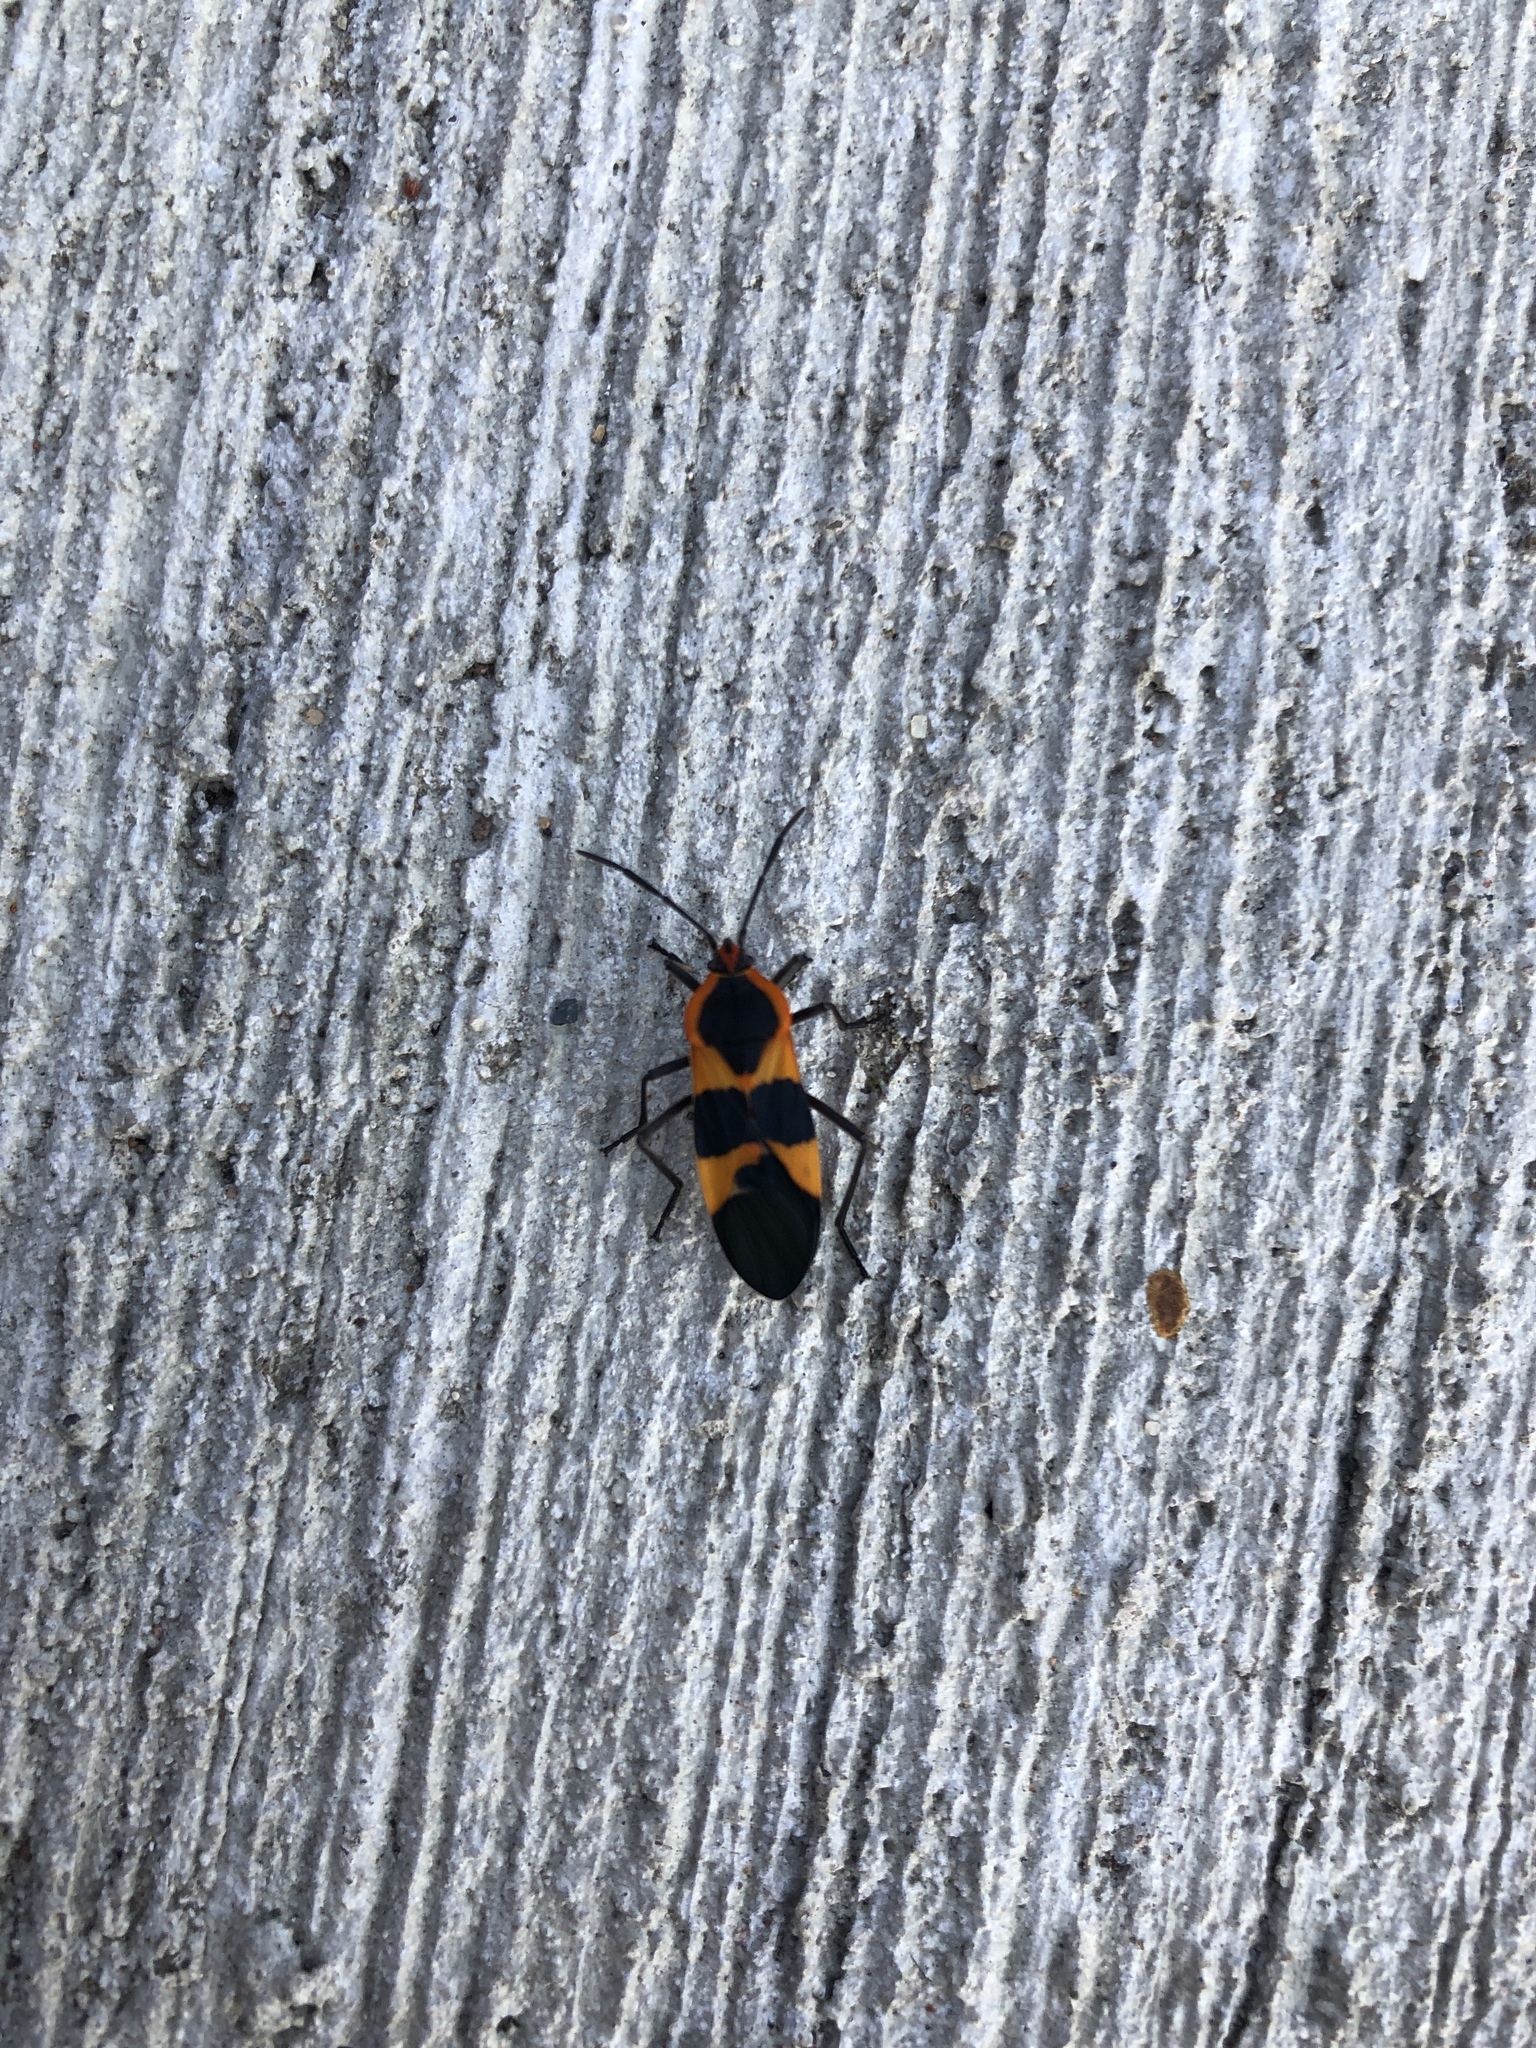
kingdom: Animalia
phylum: Arthropoda
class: Insecta
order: Hemiptera
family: Lygaeidae
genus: Oncopeltus
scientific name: Oncopeltus fasciatus
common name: Large milkweed bug
